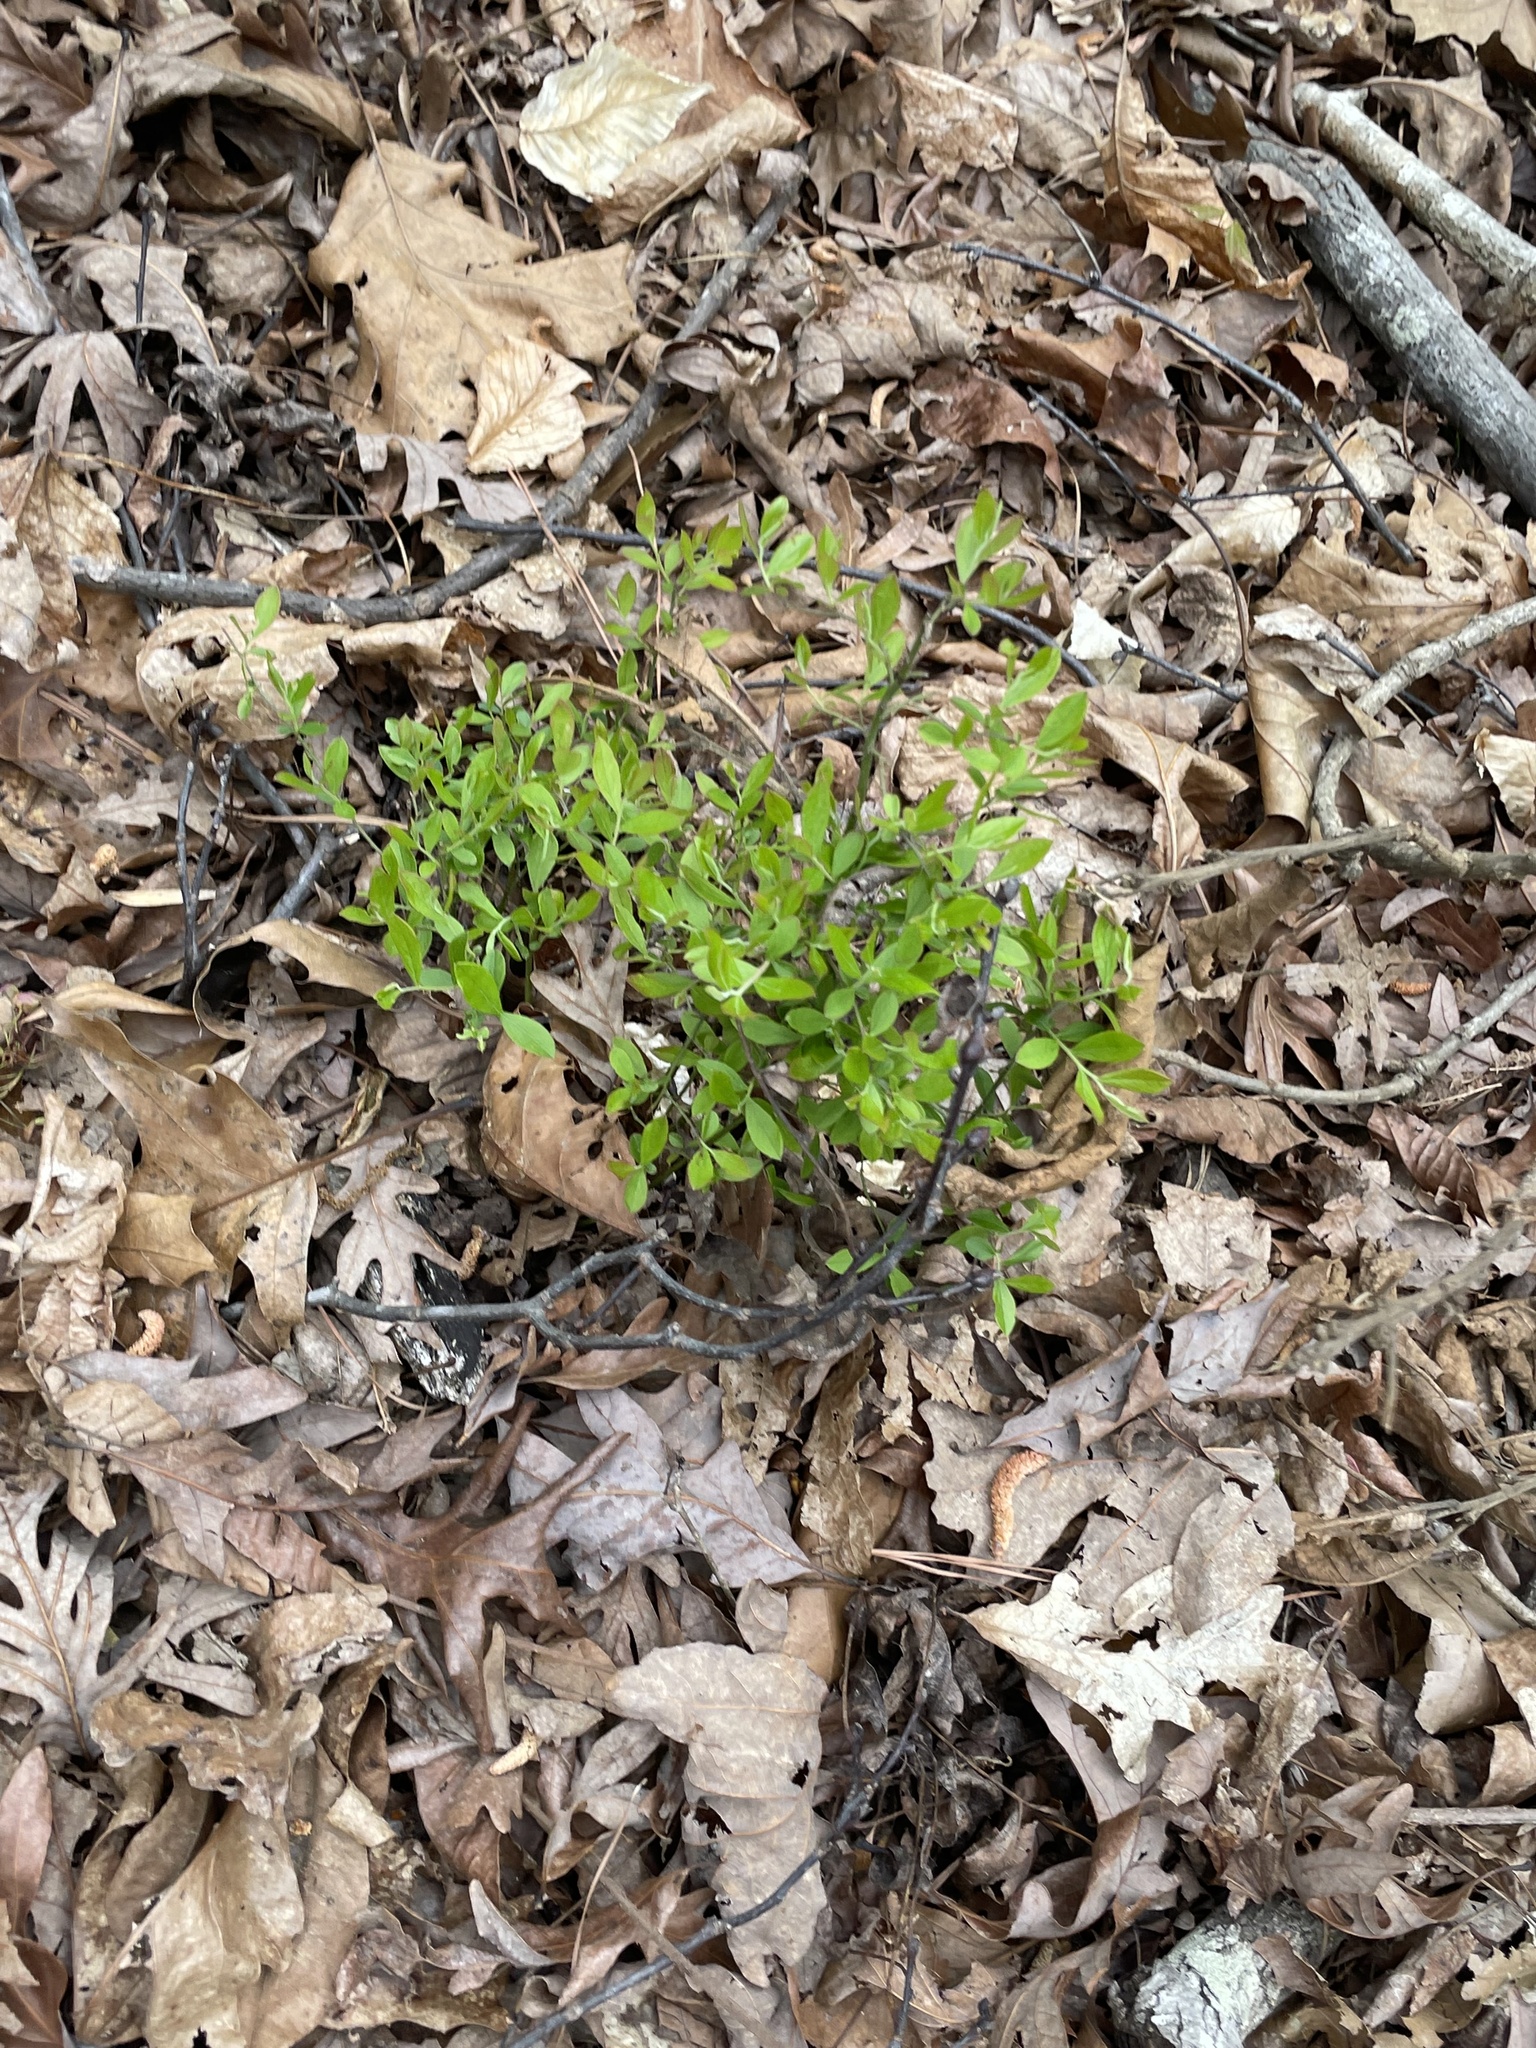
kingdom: Plantae
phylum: Tracheophyta
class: Magnoliopsida
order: Ericales
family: Ericaceae
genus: Vaccinium
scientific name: Vaccinium tenellum
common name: Southern blueberry
